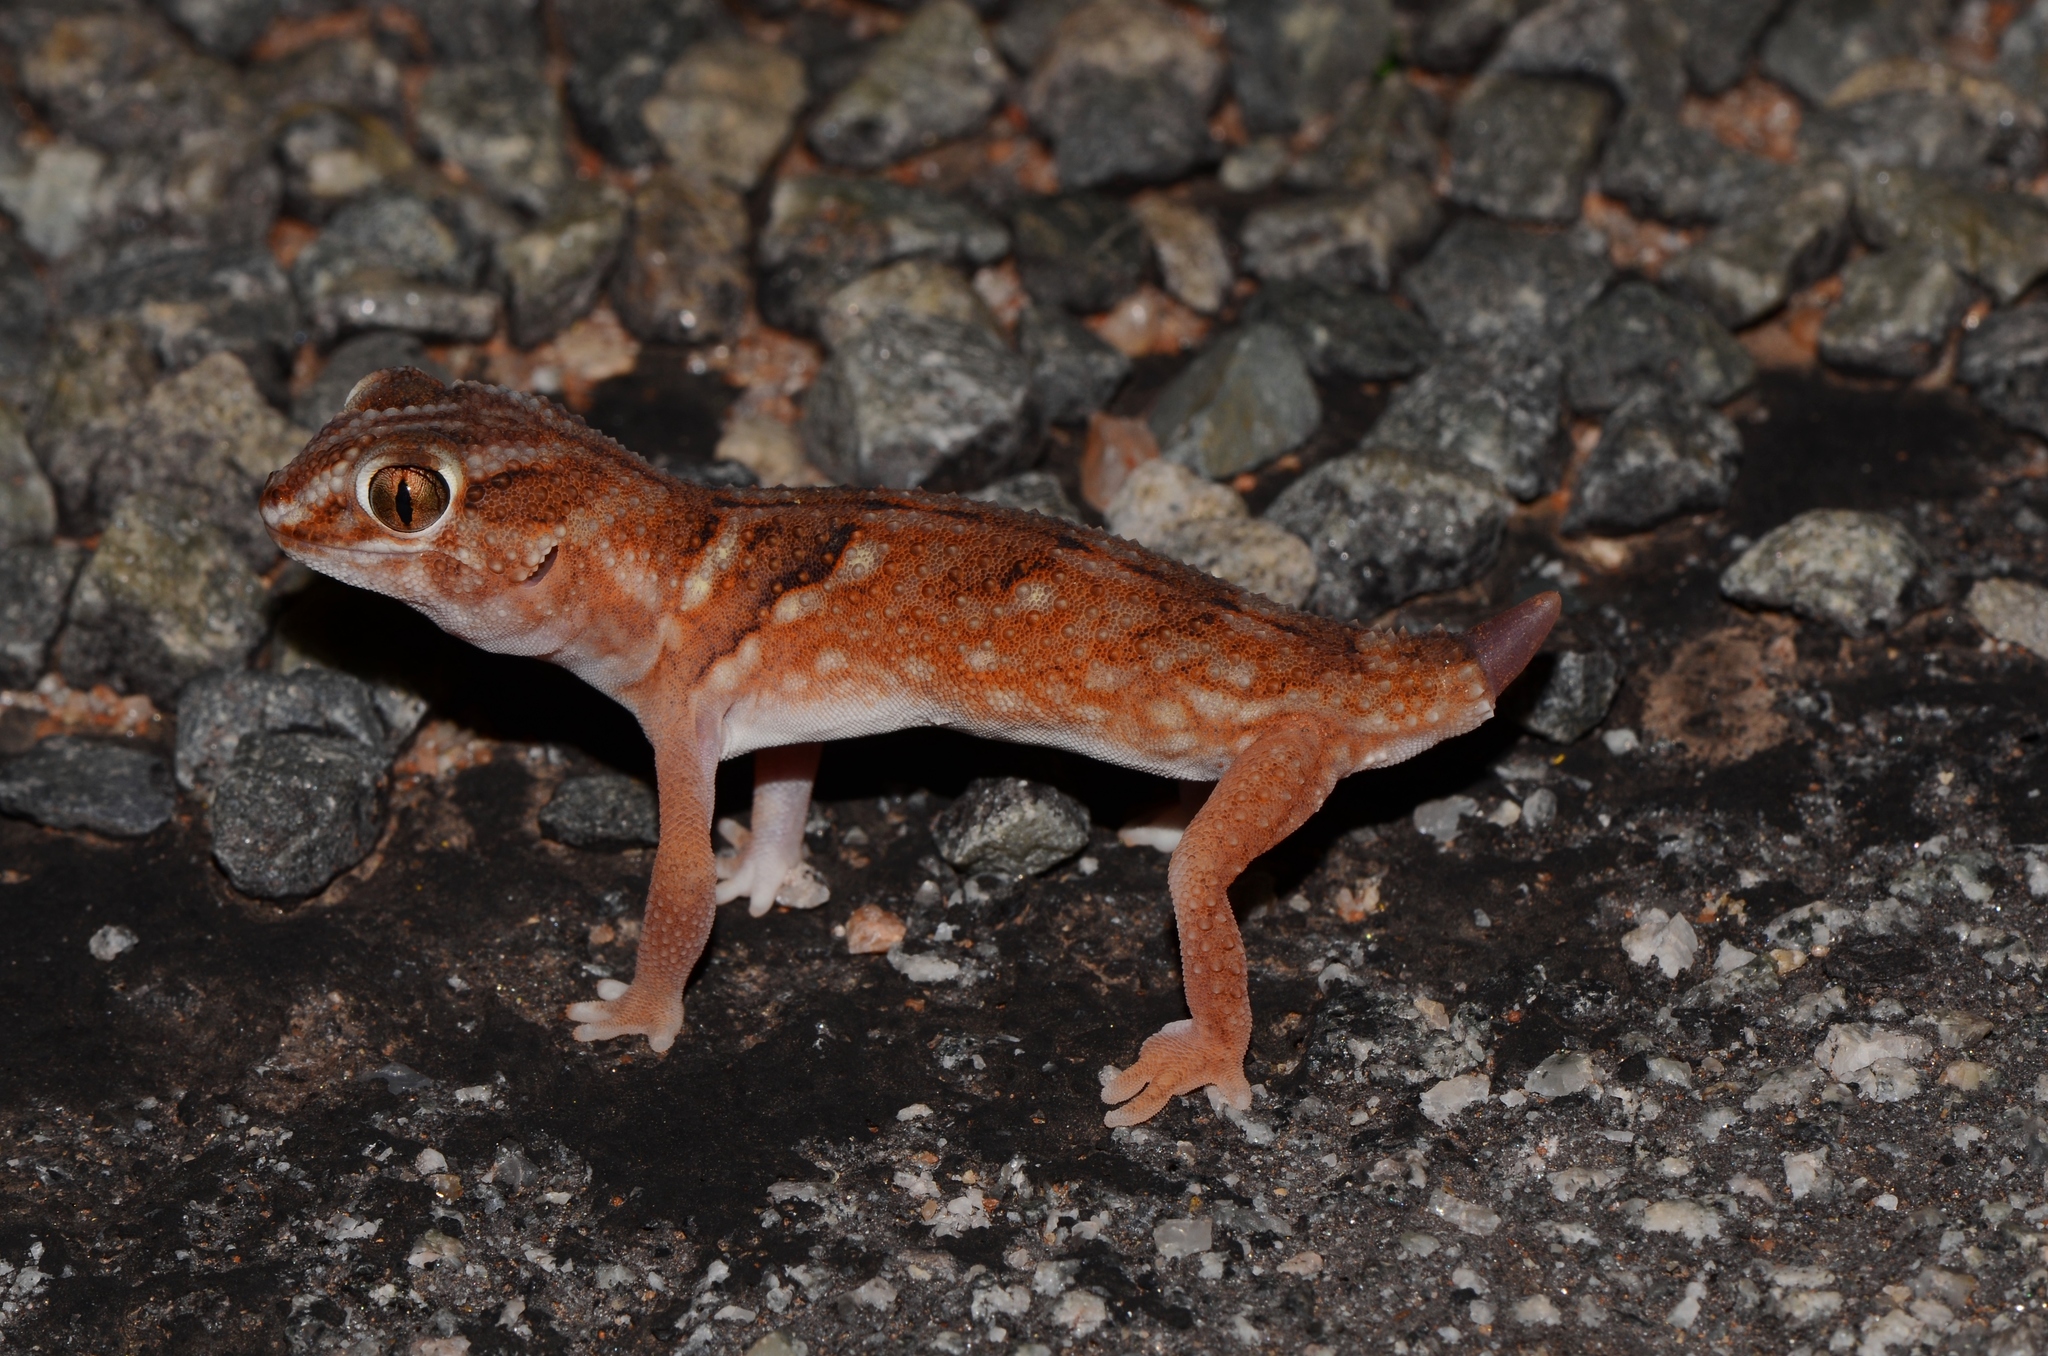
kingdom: Animalia
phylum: Chordata
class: Squamata
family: Gekkonidae
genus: Chondrodactylus
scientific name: Chondrodactylus angulifer
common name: Common giant ground gecko
